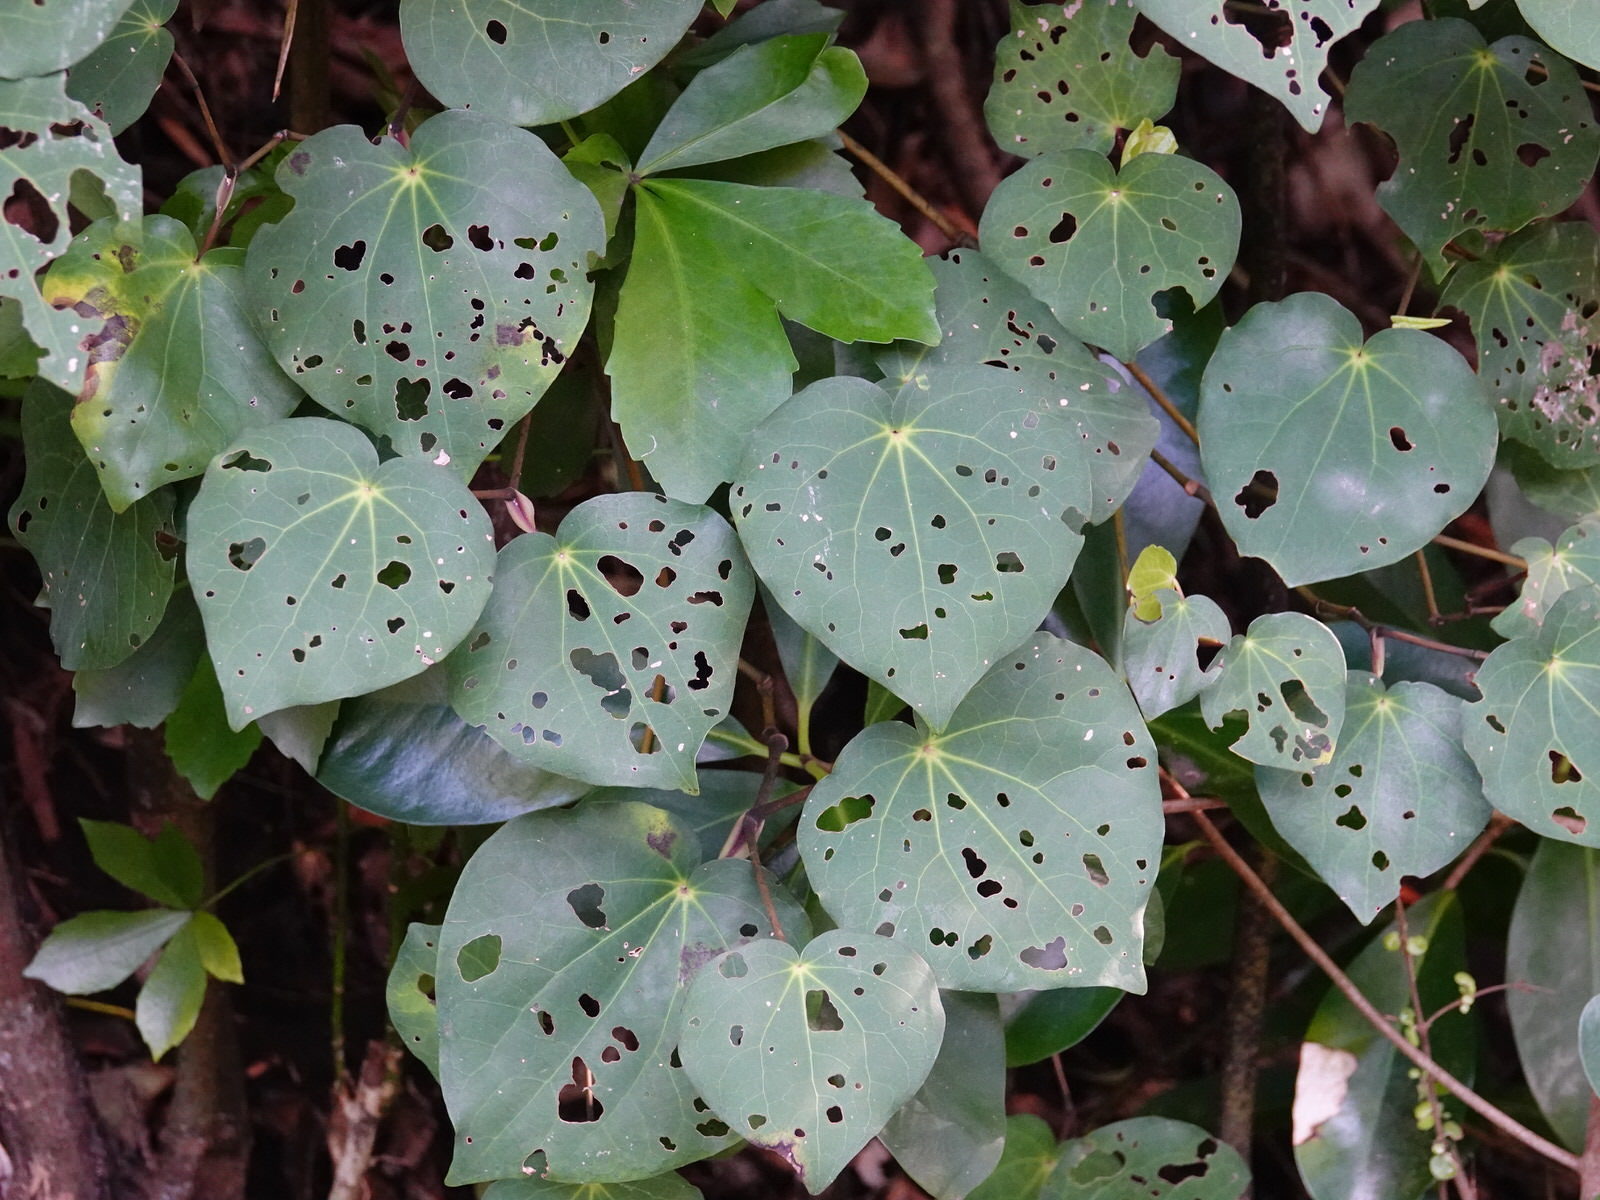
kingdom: Plantae
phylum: Tracheophyta
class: Magnoliopsida
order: Piperales
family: Piperaceae
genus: Macropiper
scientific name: Macropiper excelsum
